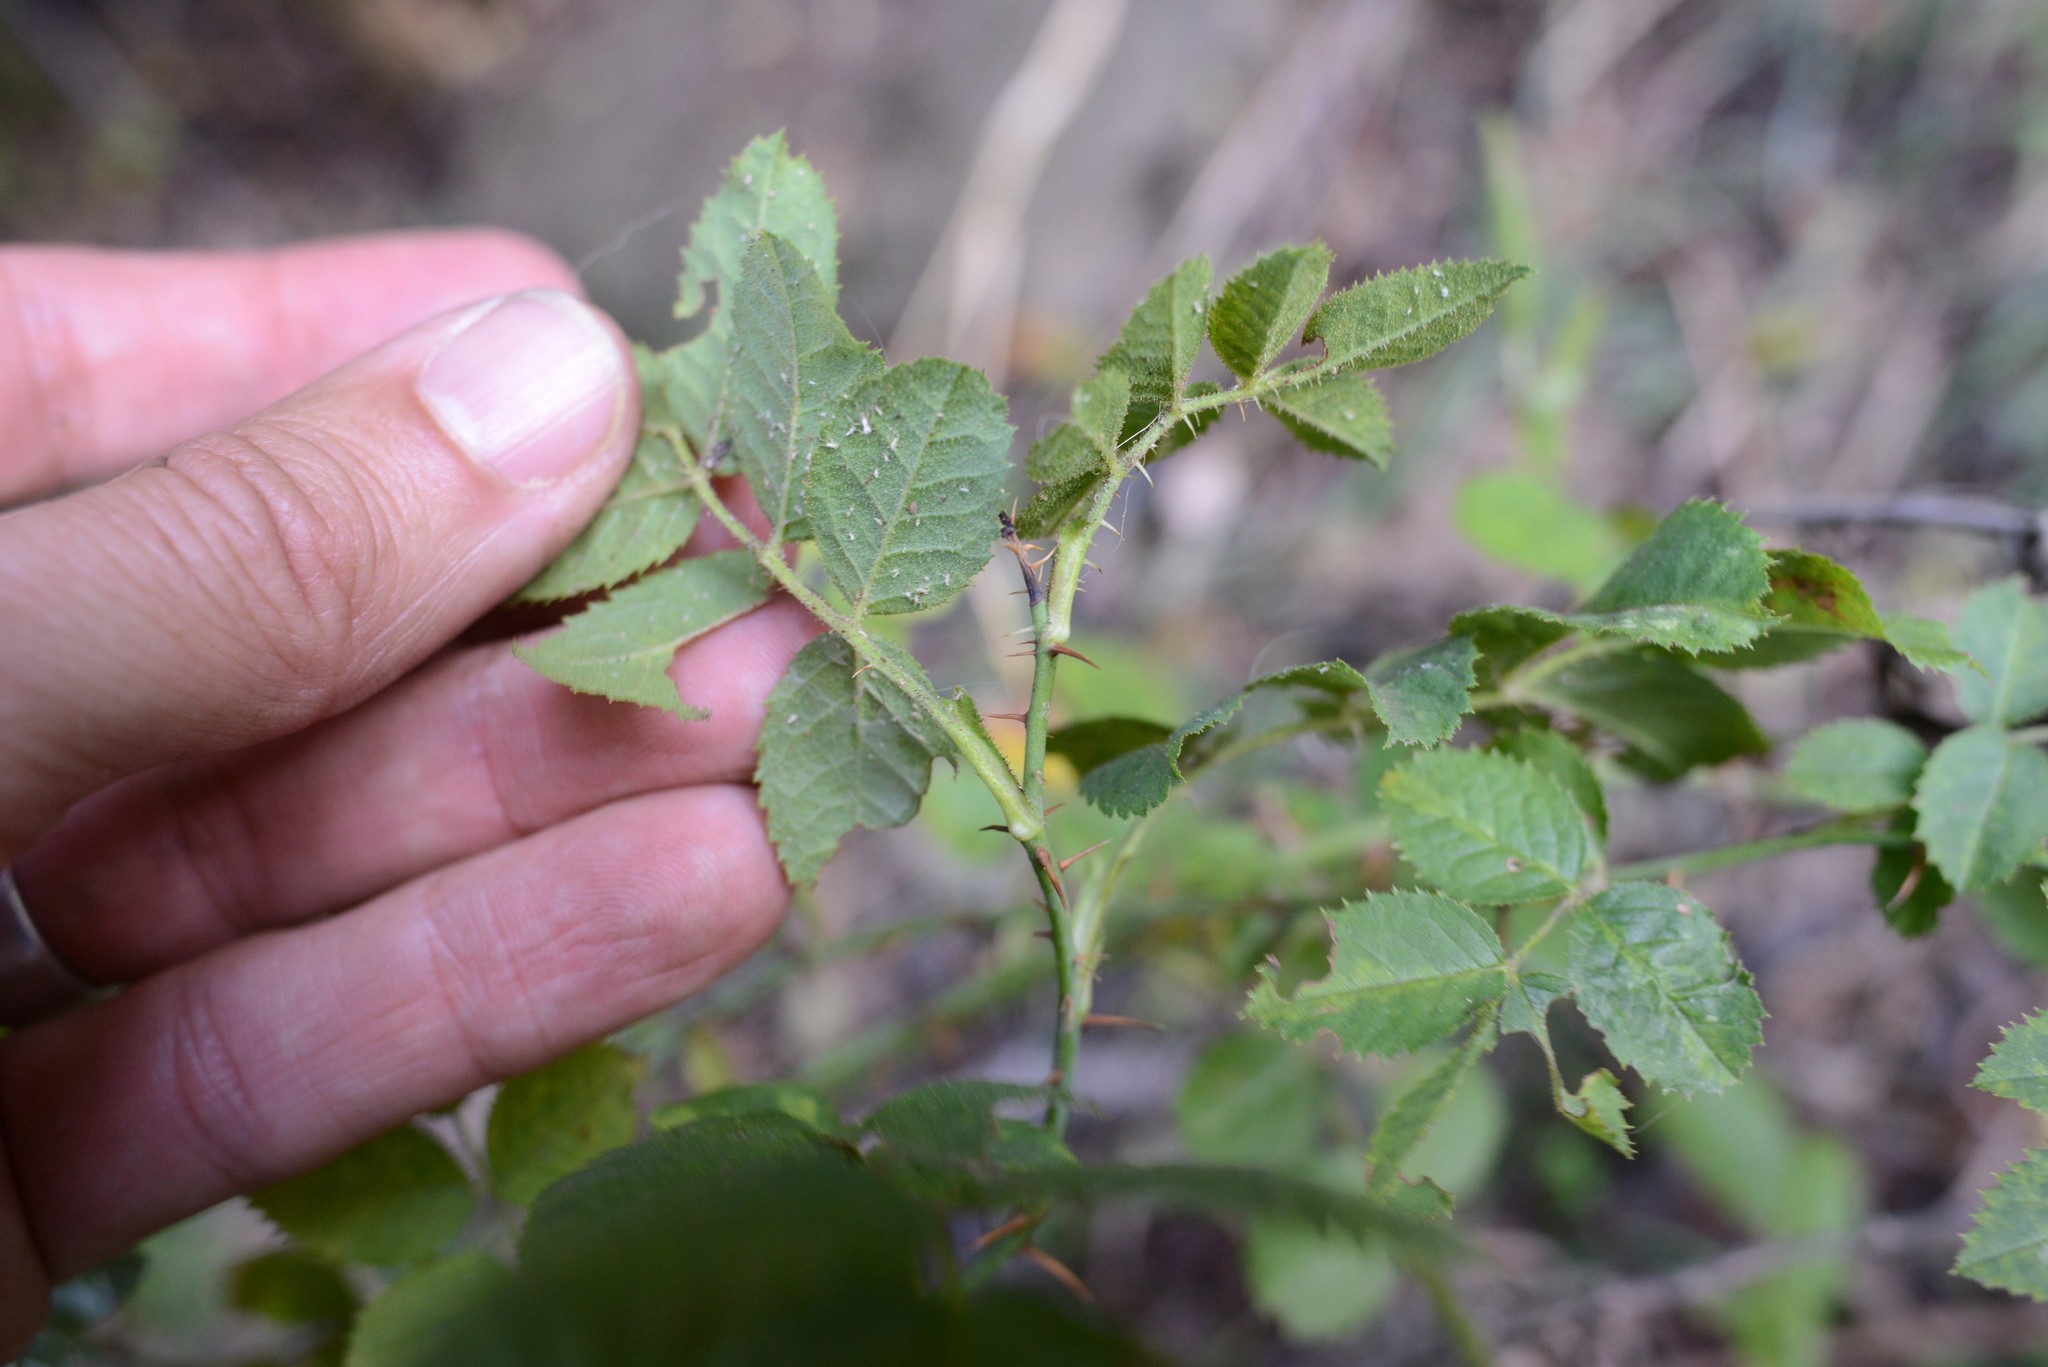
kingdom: Plantae
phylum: Tracheophyta
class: Magnoliopsida
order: Rosales
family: Rosaceae
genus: Rosa
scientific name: Rosa rubiginosa
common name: Sweet-briar
